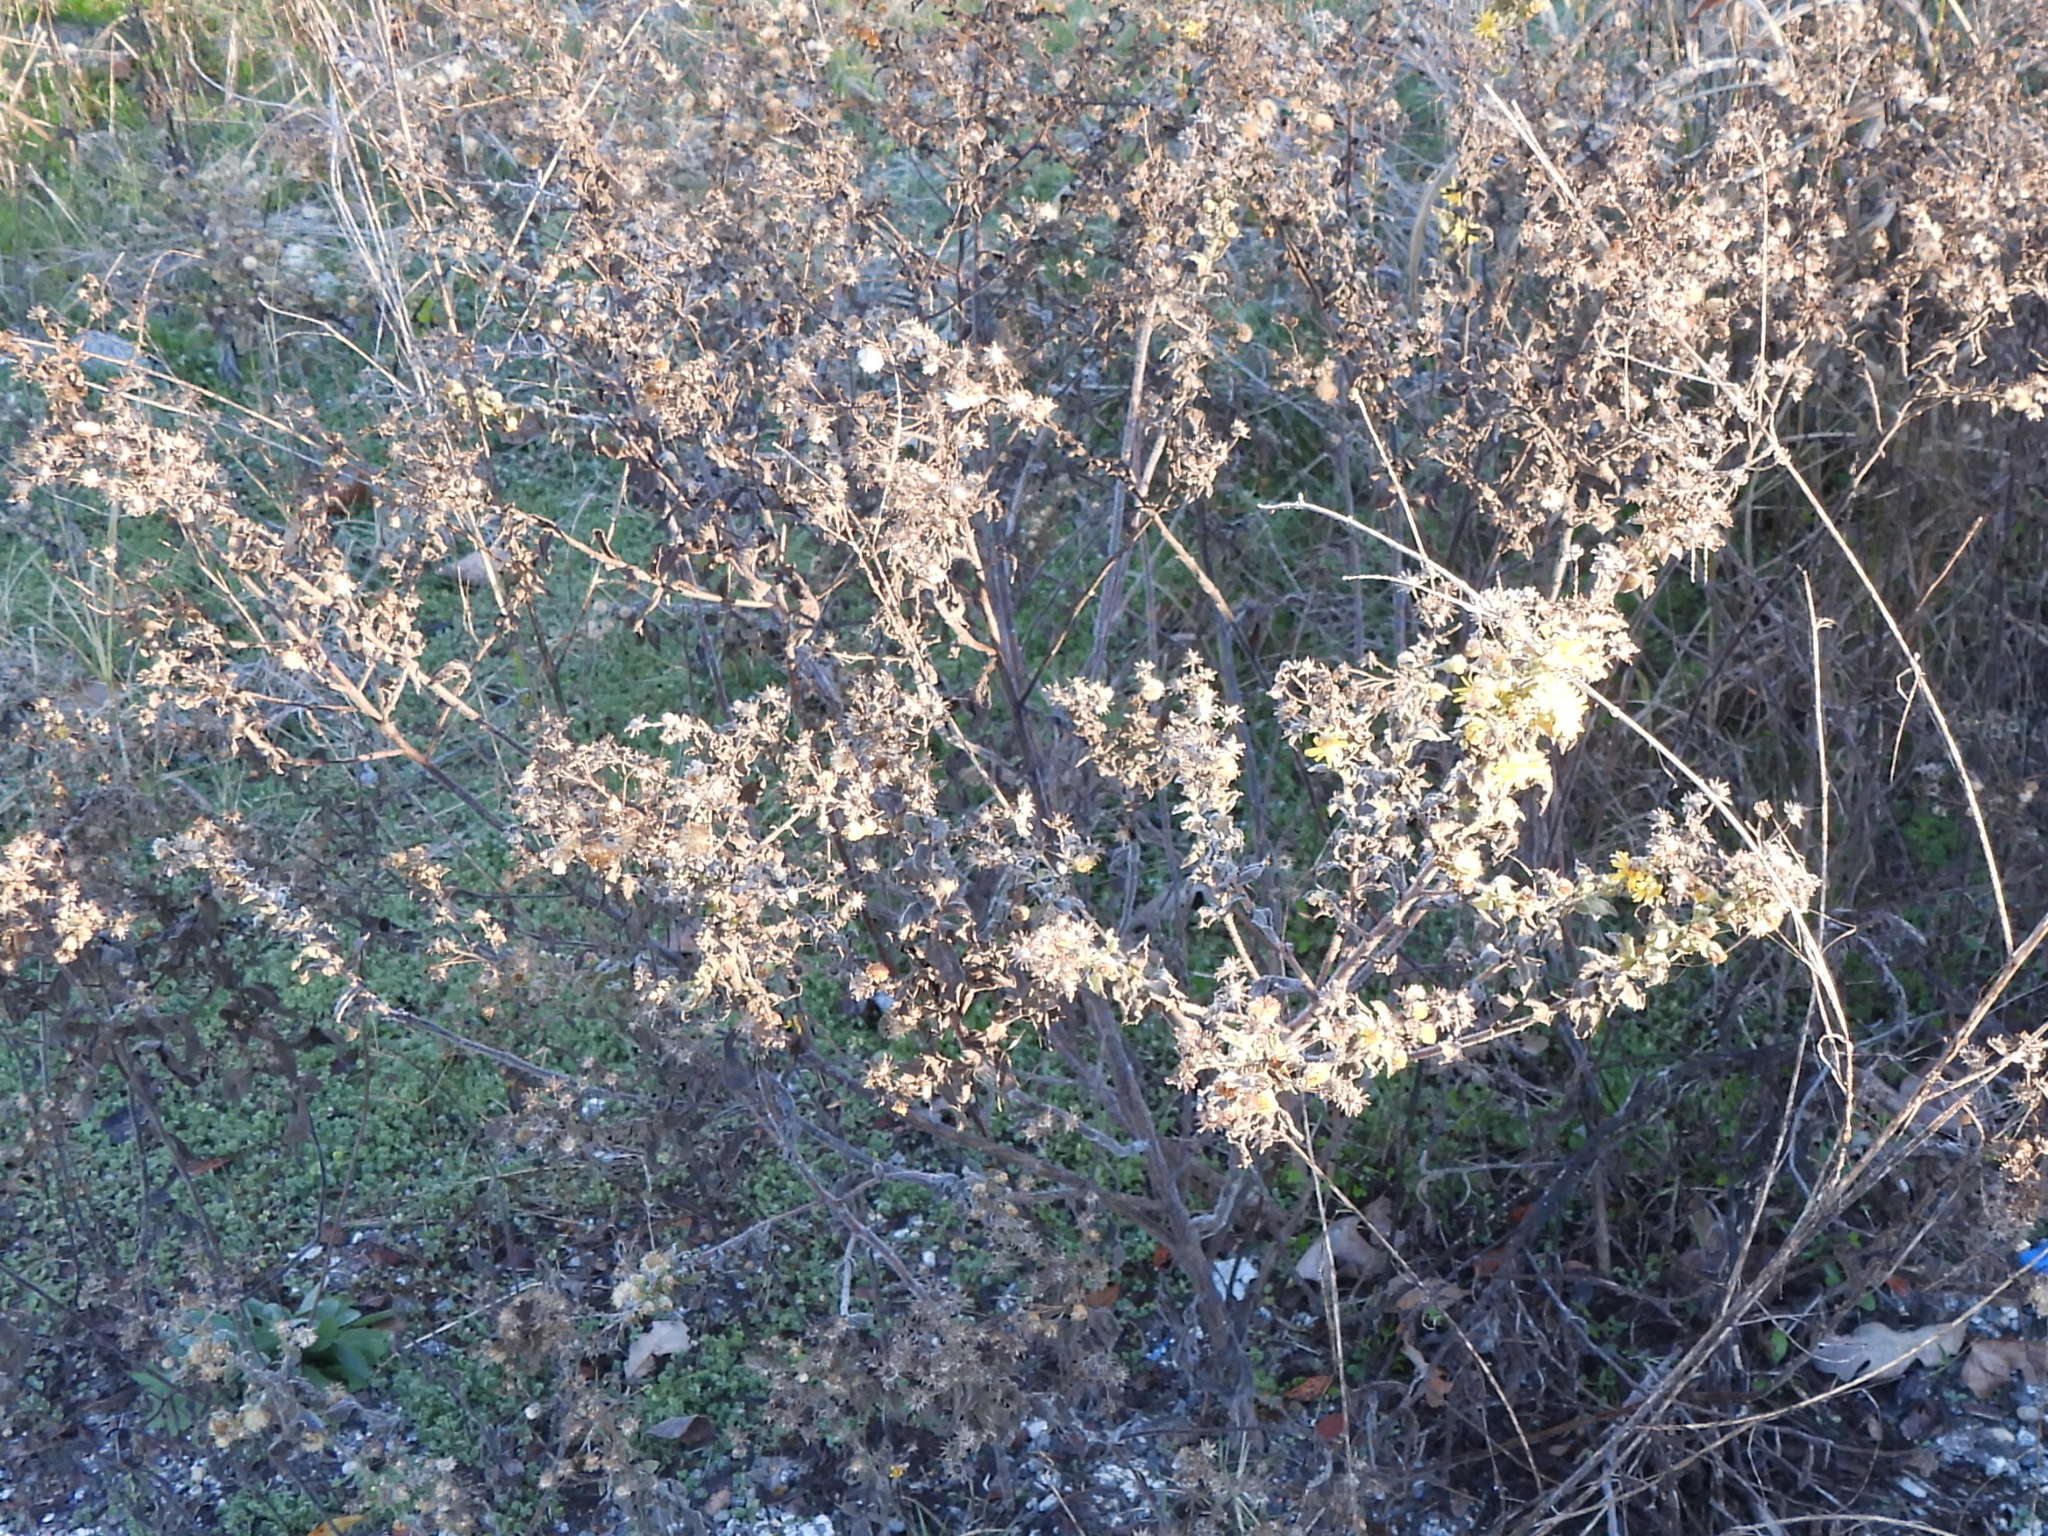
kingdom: Plantae
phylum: Tracheophyta
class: Magnoliopsida
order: Asterales
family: Asteraceae
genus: Heterotheca
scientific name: Heterotheca subaxillaris
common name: Camphorweed
